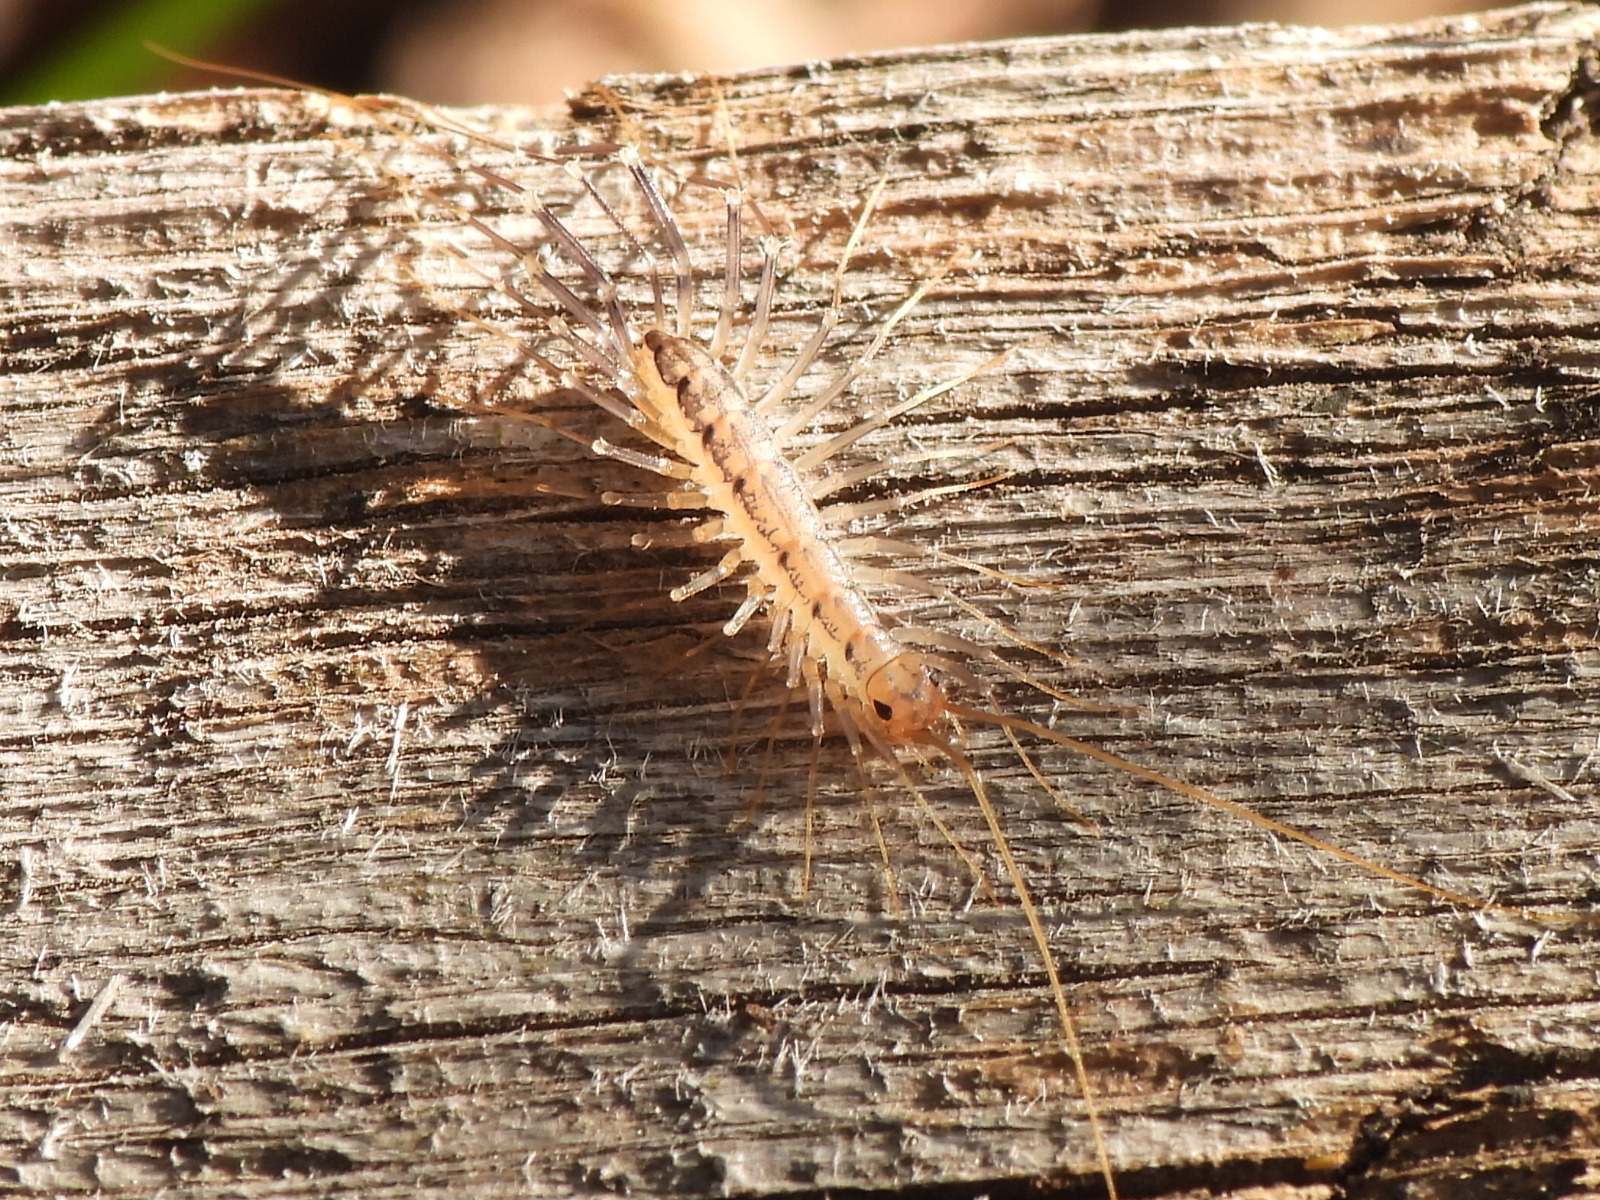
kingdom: Animalia
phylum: Arthropoda
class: Chilopoda
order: Scutigeromorpha
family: Scutigeridae
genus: Scutigera
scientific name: Scutigera coleoptrata
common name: House centipede
